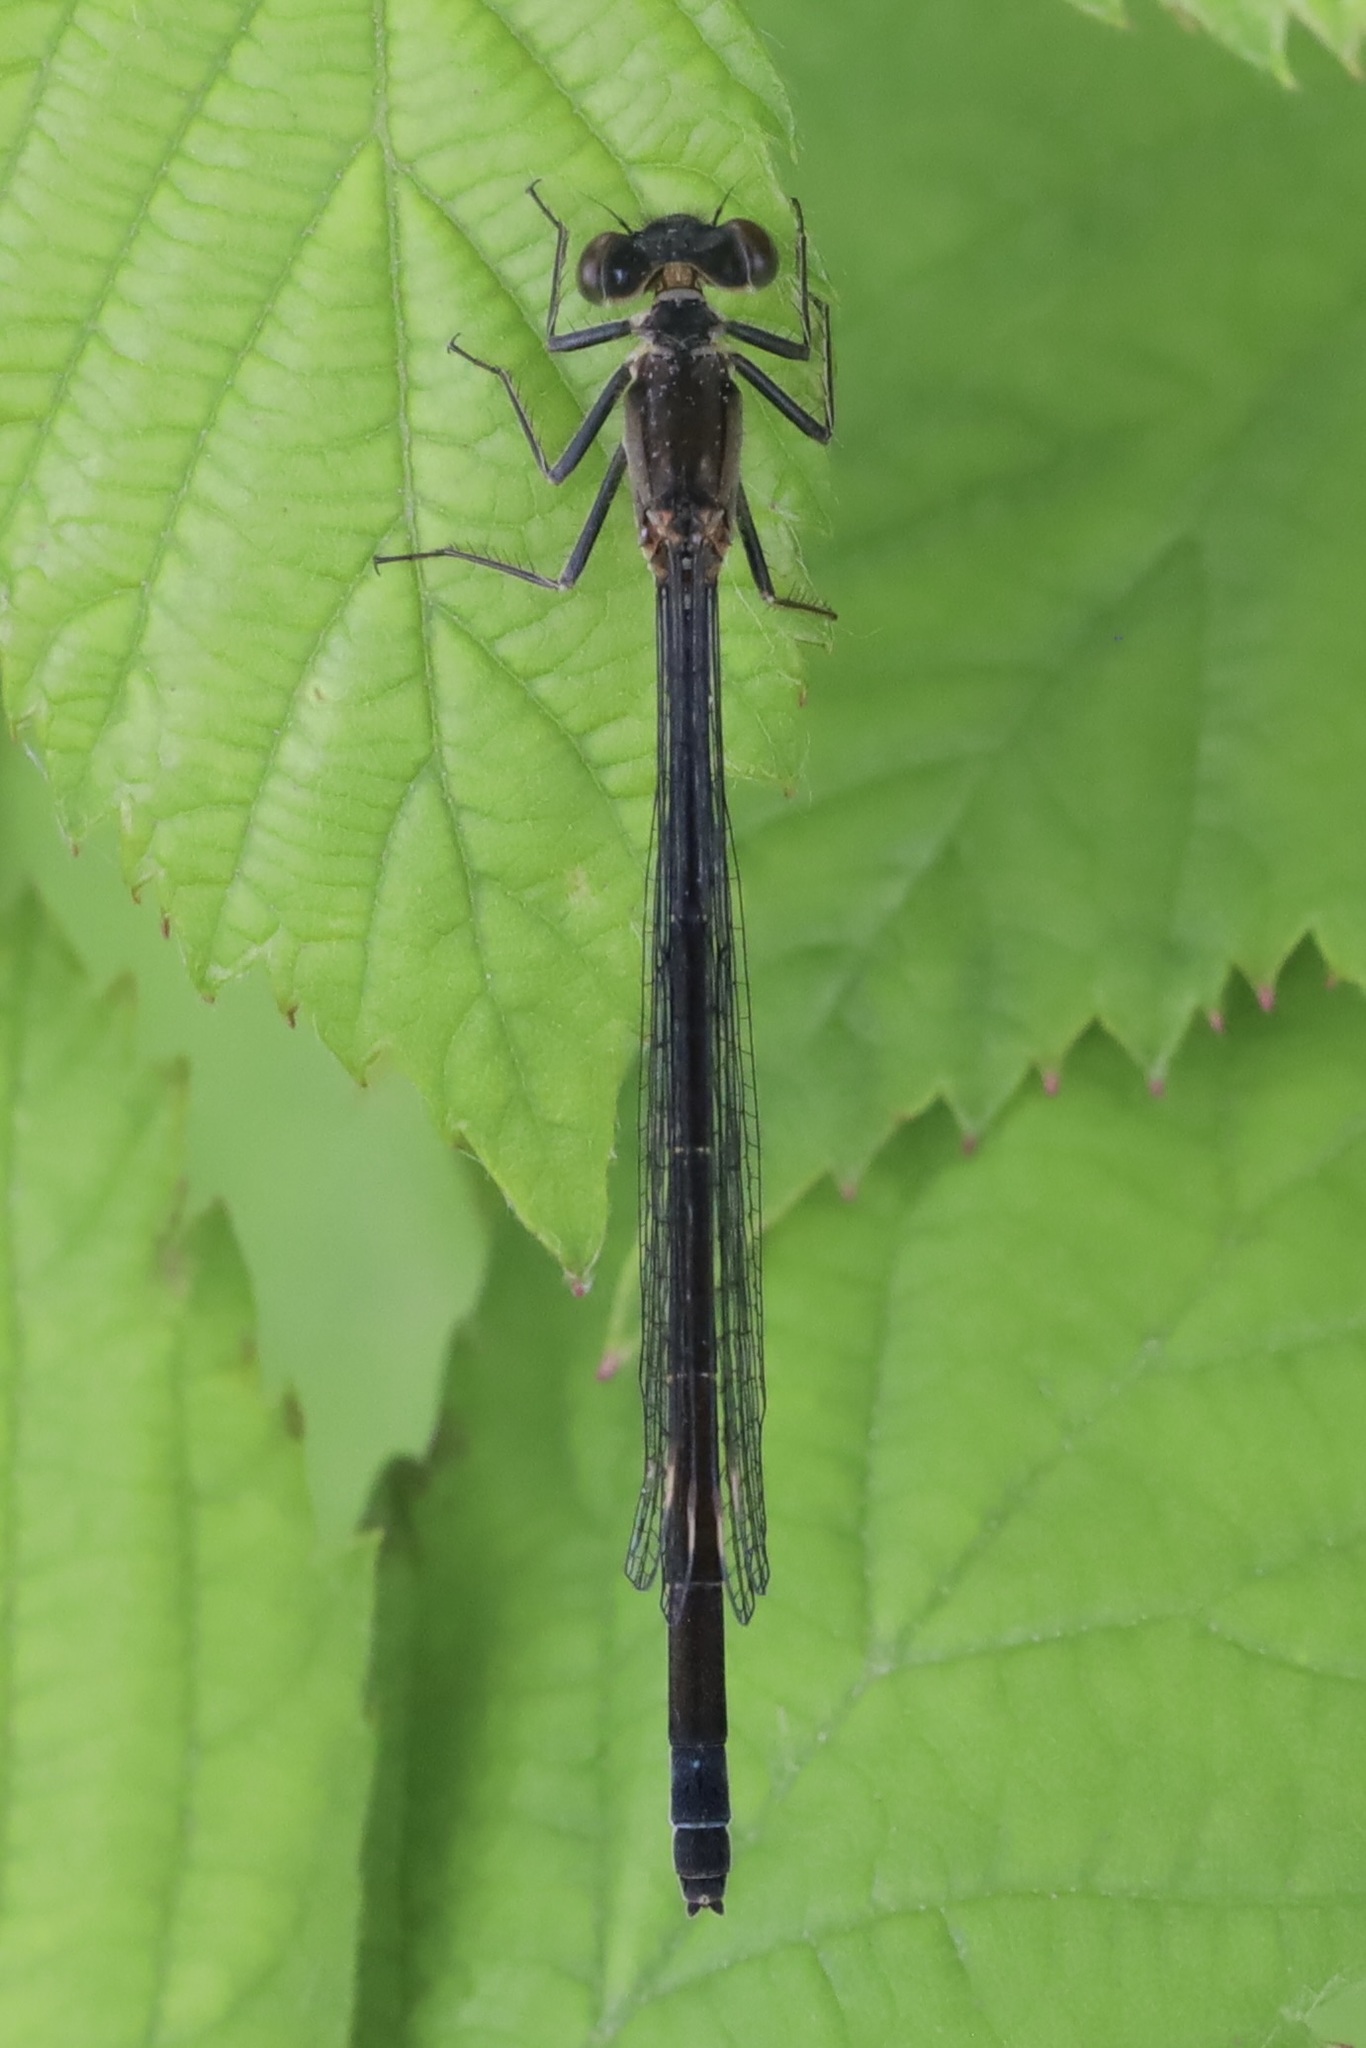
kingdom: Animalia
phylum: Arthropoda
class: Insecta
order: Odonata
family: Coenagrionidae
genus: Ischnura
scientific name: Ischnura cervula
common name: Pacific forktail
